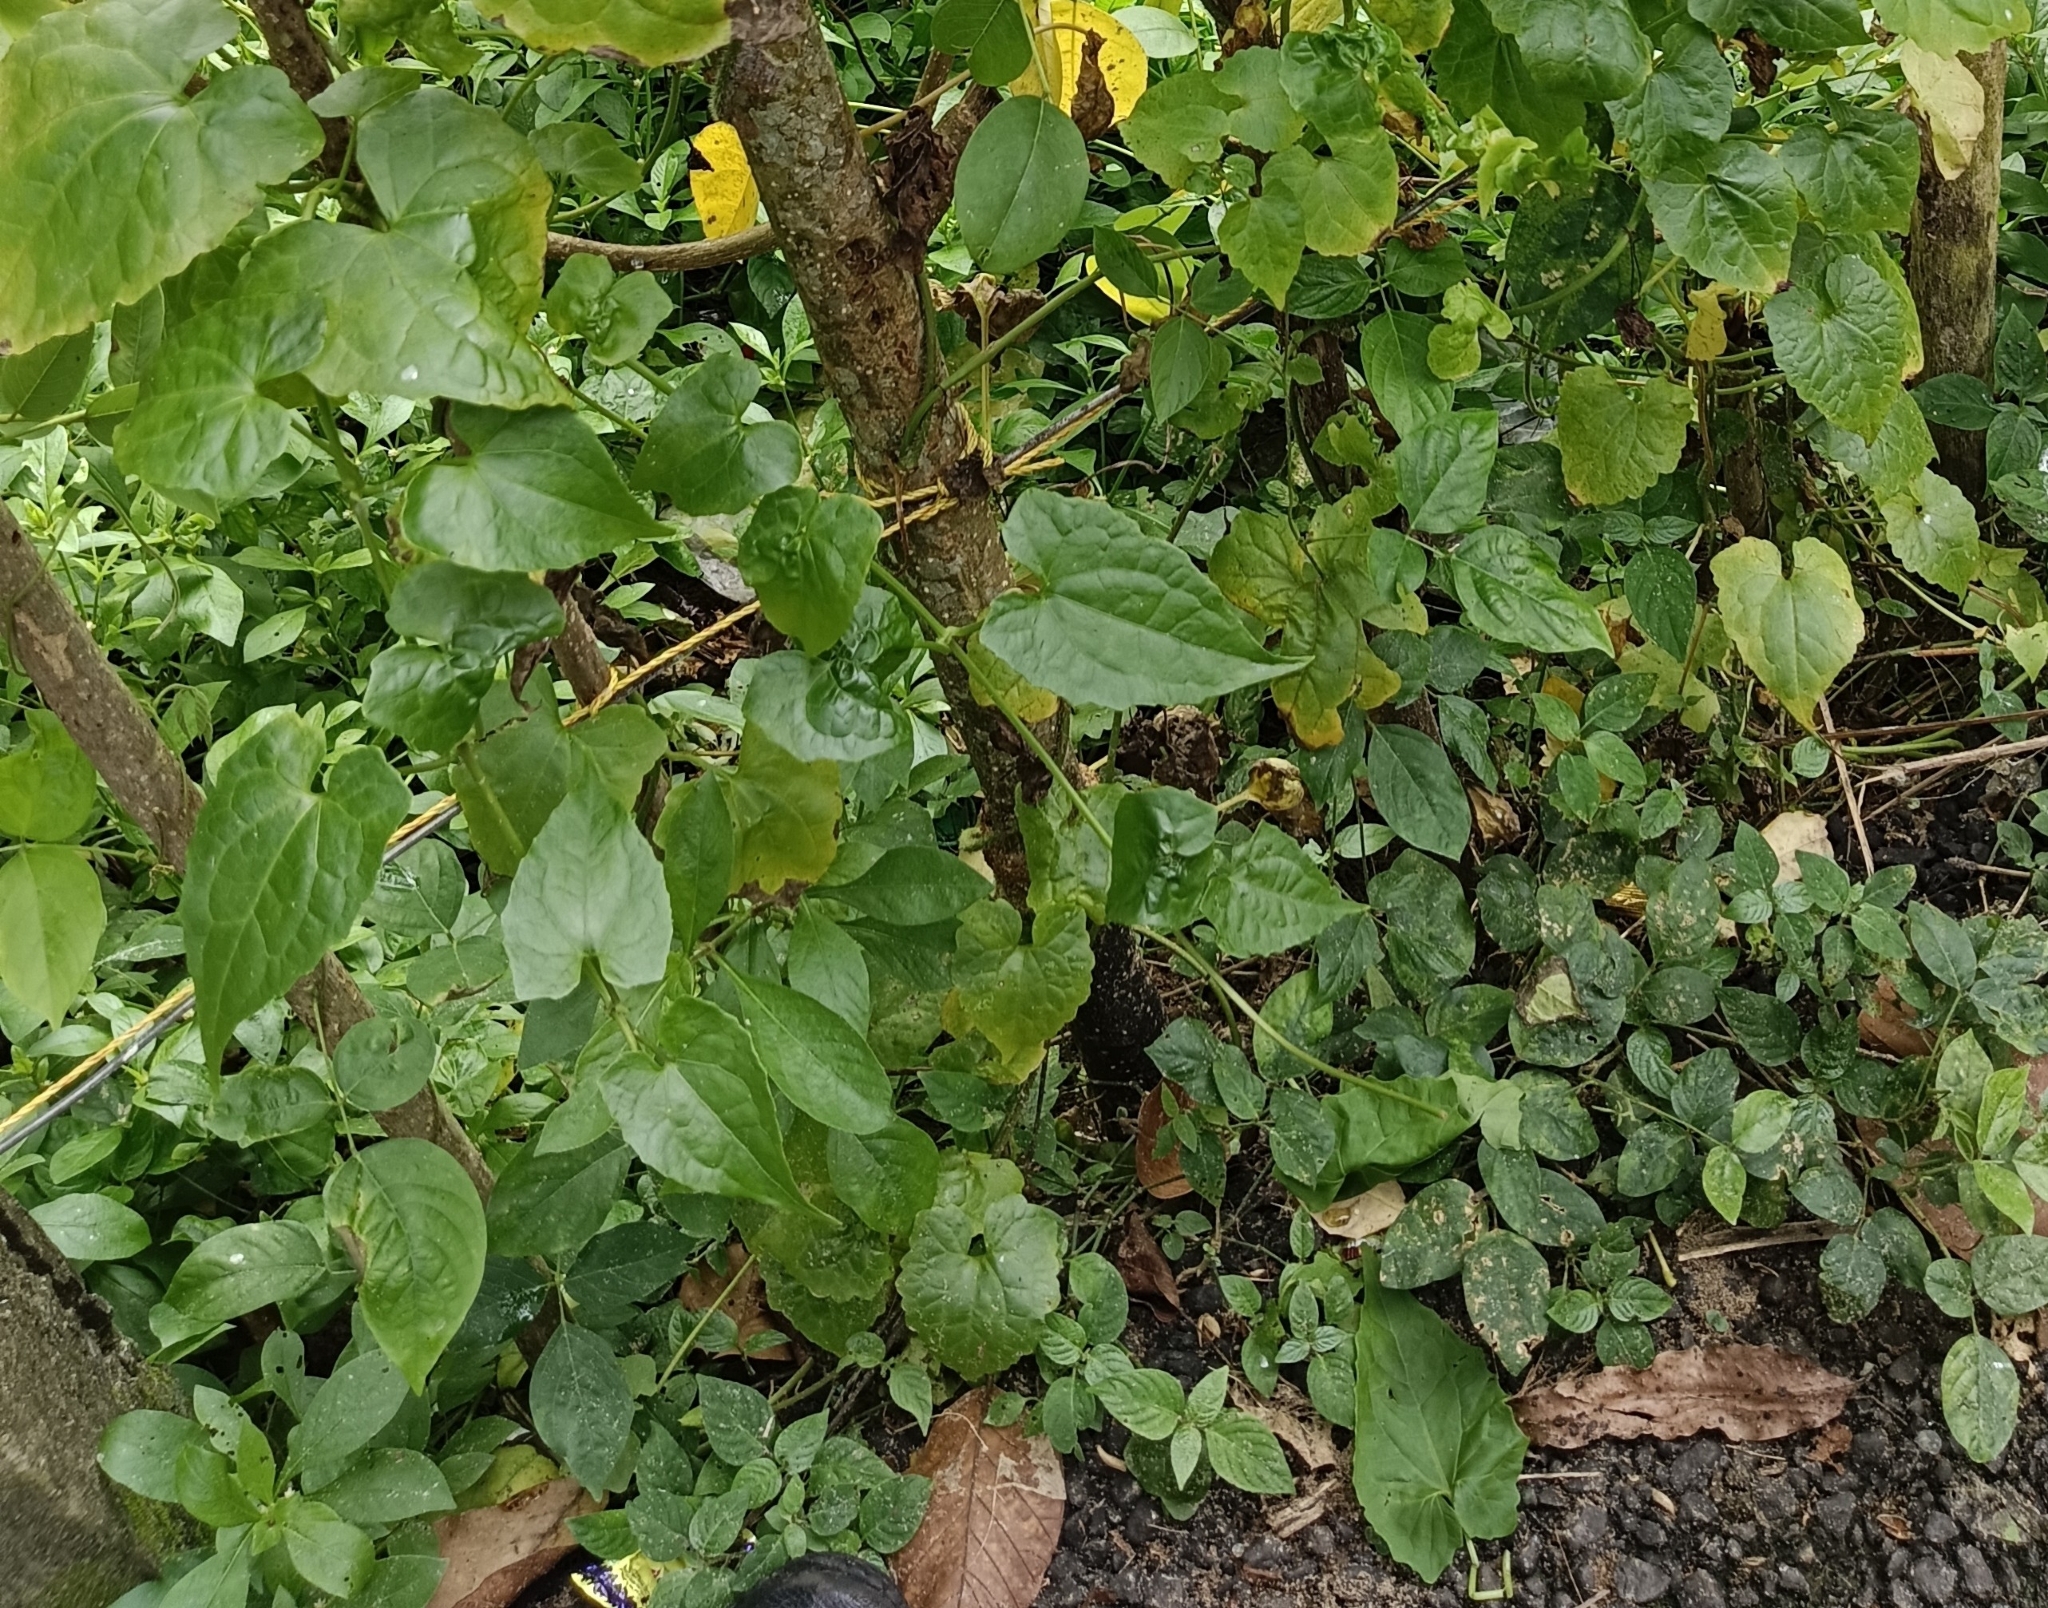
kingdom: Plantae
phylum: Tracheophyta
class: Magnoliopsida
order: Asterales
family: Asteraceae
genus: Mikania
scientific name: Mikania micrantha
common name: Mile-a-minute
